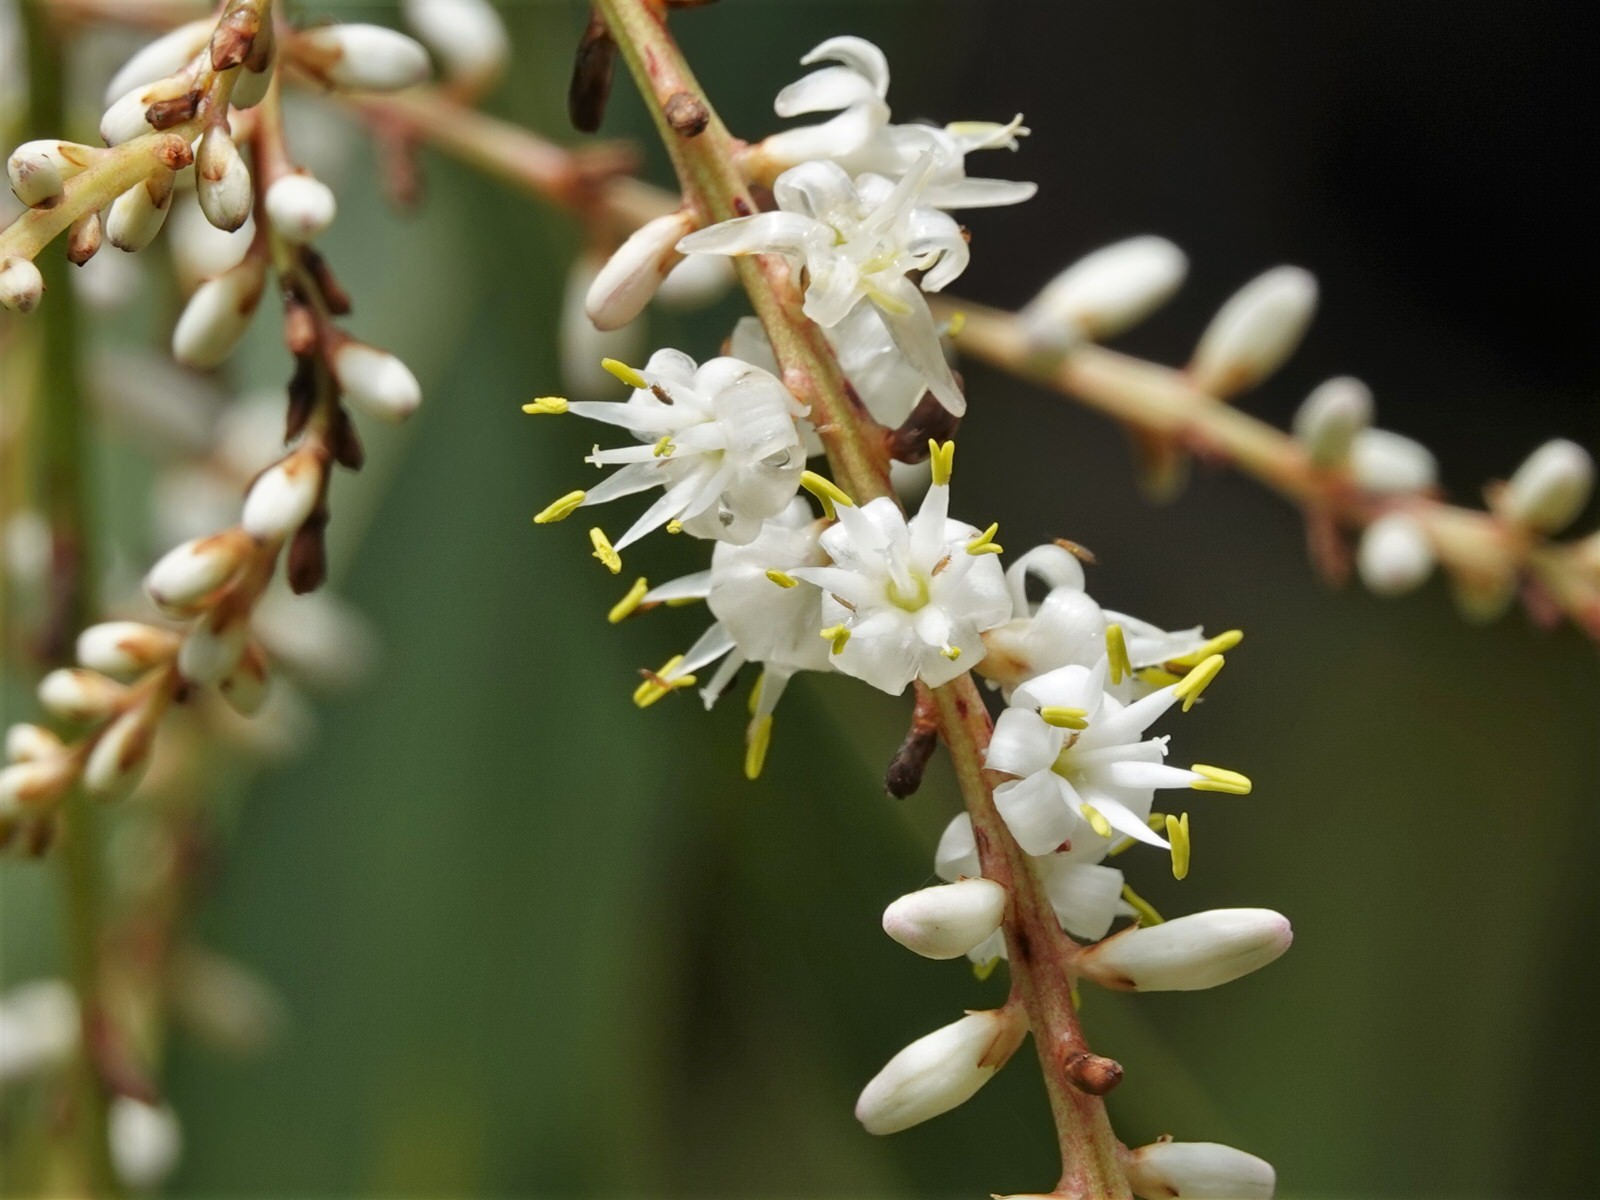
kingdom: Plantae
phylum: Tracheophyta
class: Liliopsida
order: Asparagales
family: Asparagaceae
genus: Cordyline
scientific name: Cordyline banksii
